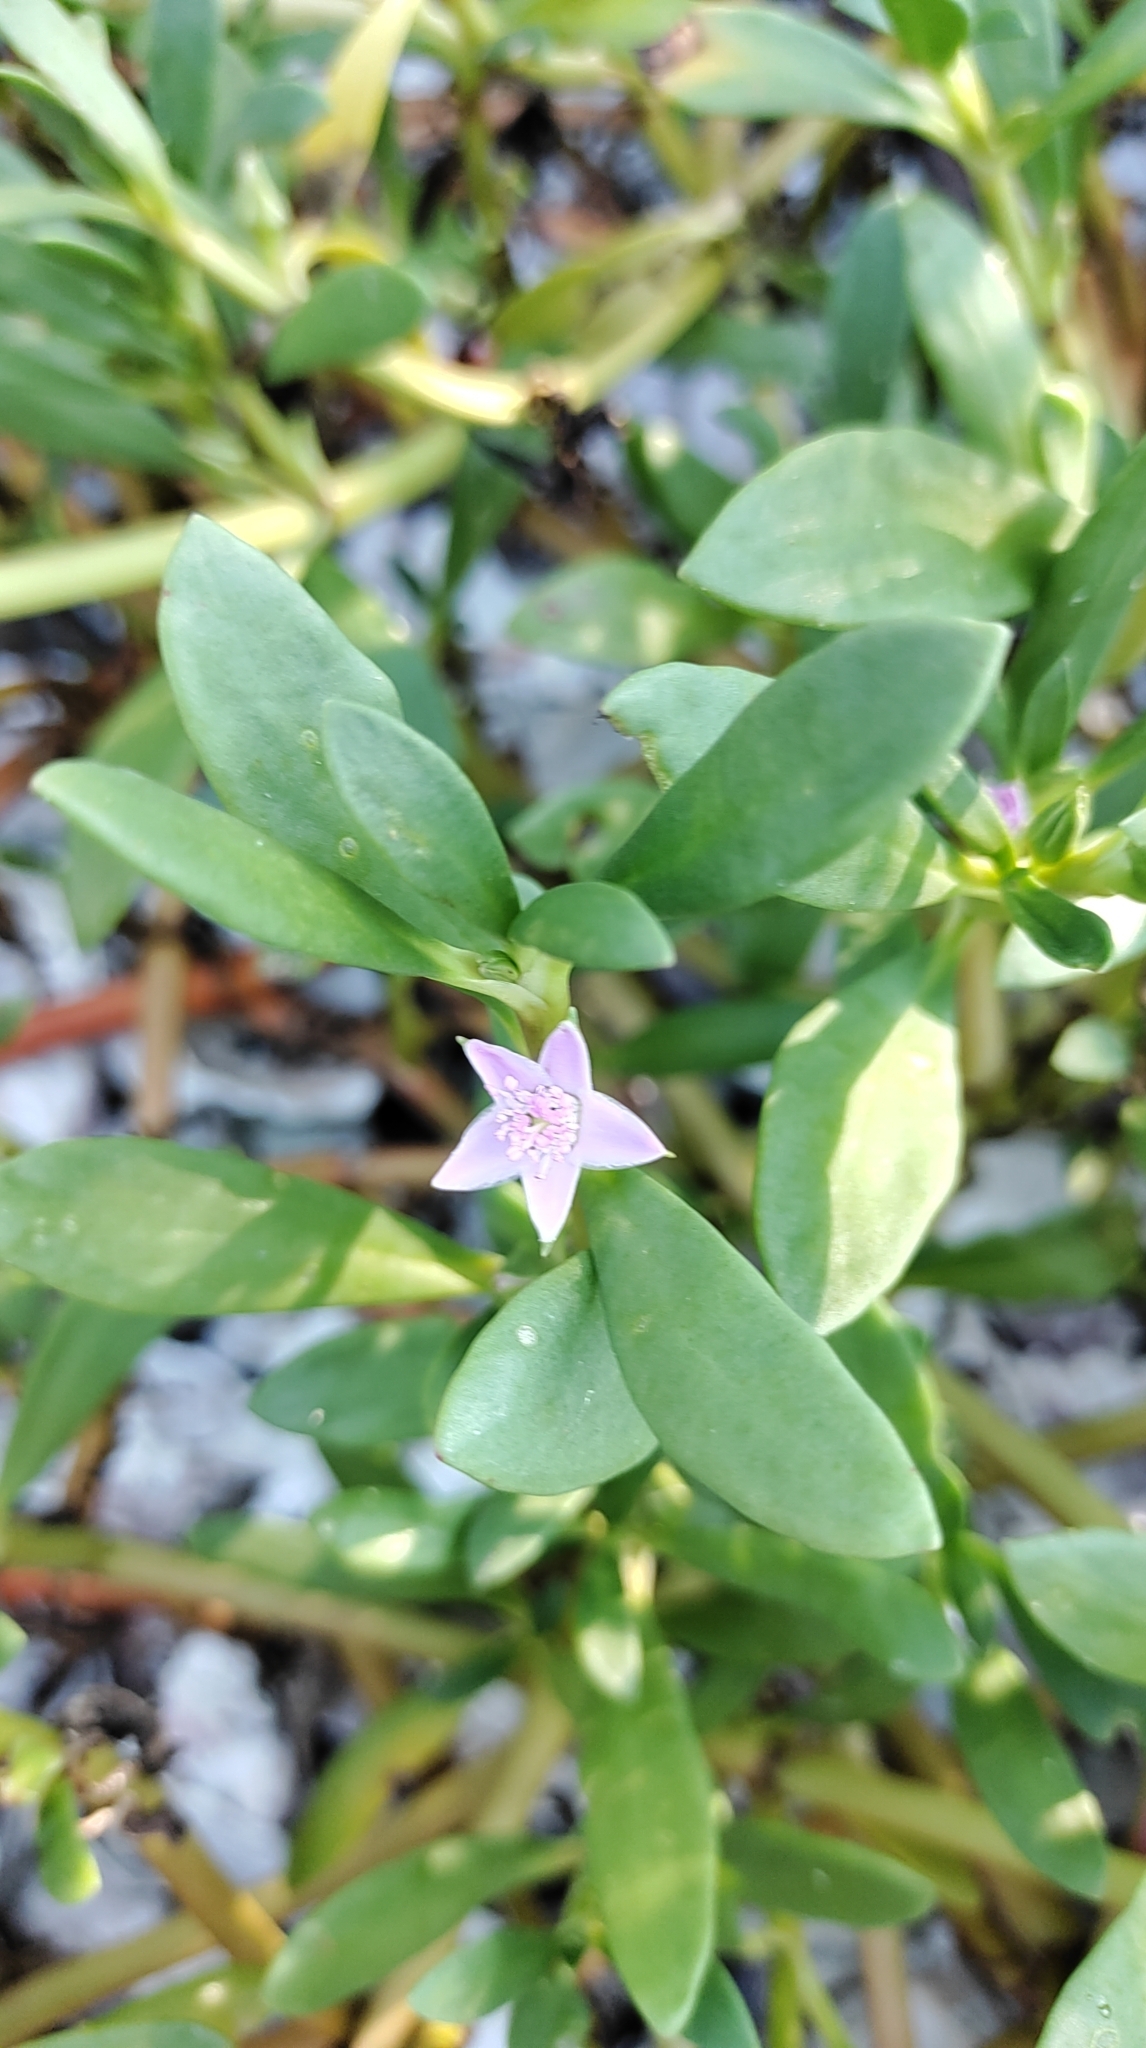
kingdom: Plantae
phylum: Tracheophyta
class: Magnoliopsida
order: Caryophyllales
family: Aizoaceae
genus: Sesuvium
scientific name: Sesuvium portulacastrum
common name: Sea-purslane
